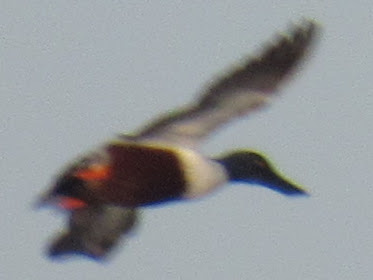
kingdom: Animalia
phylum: Chordata
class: Aves
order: Anseriformes
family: Anatidae
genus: Spatula
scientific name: Spatula clypeata
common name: Northern shoveler
